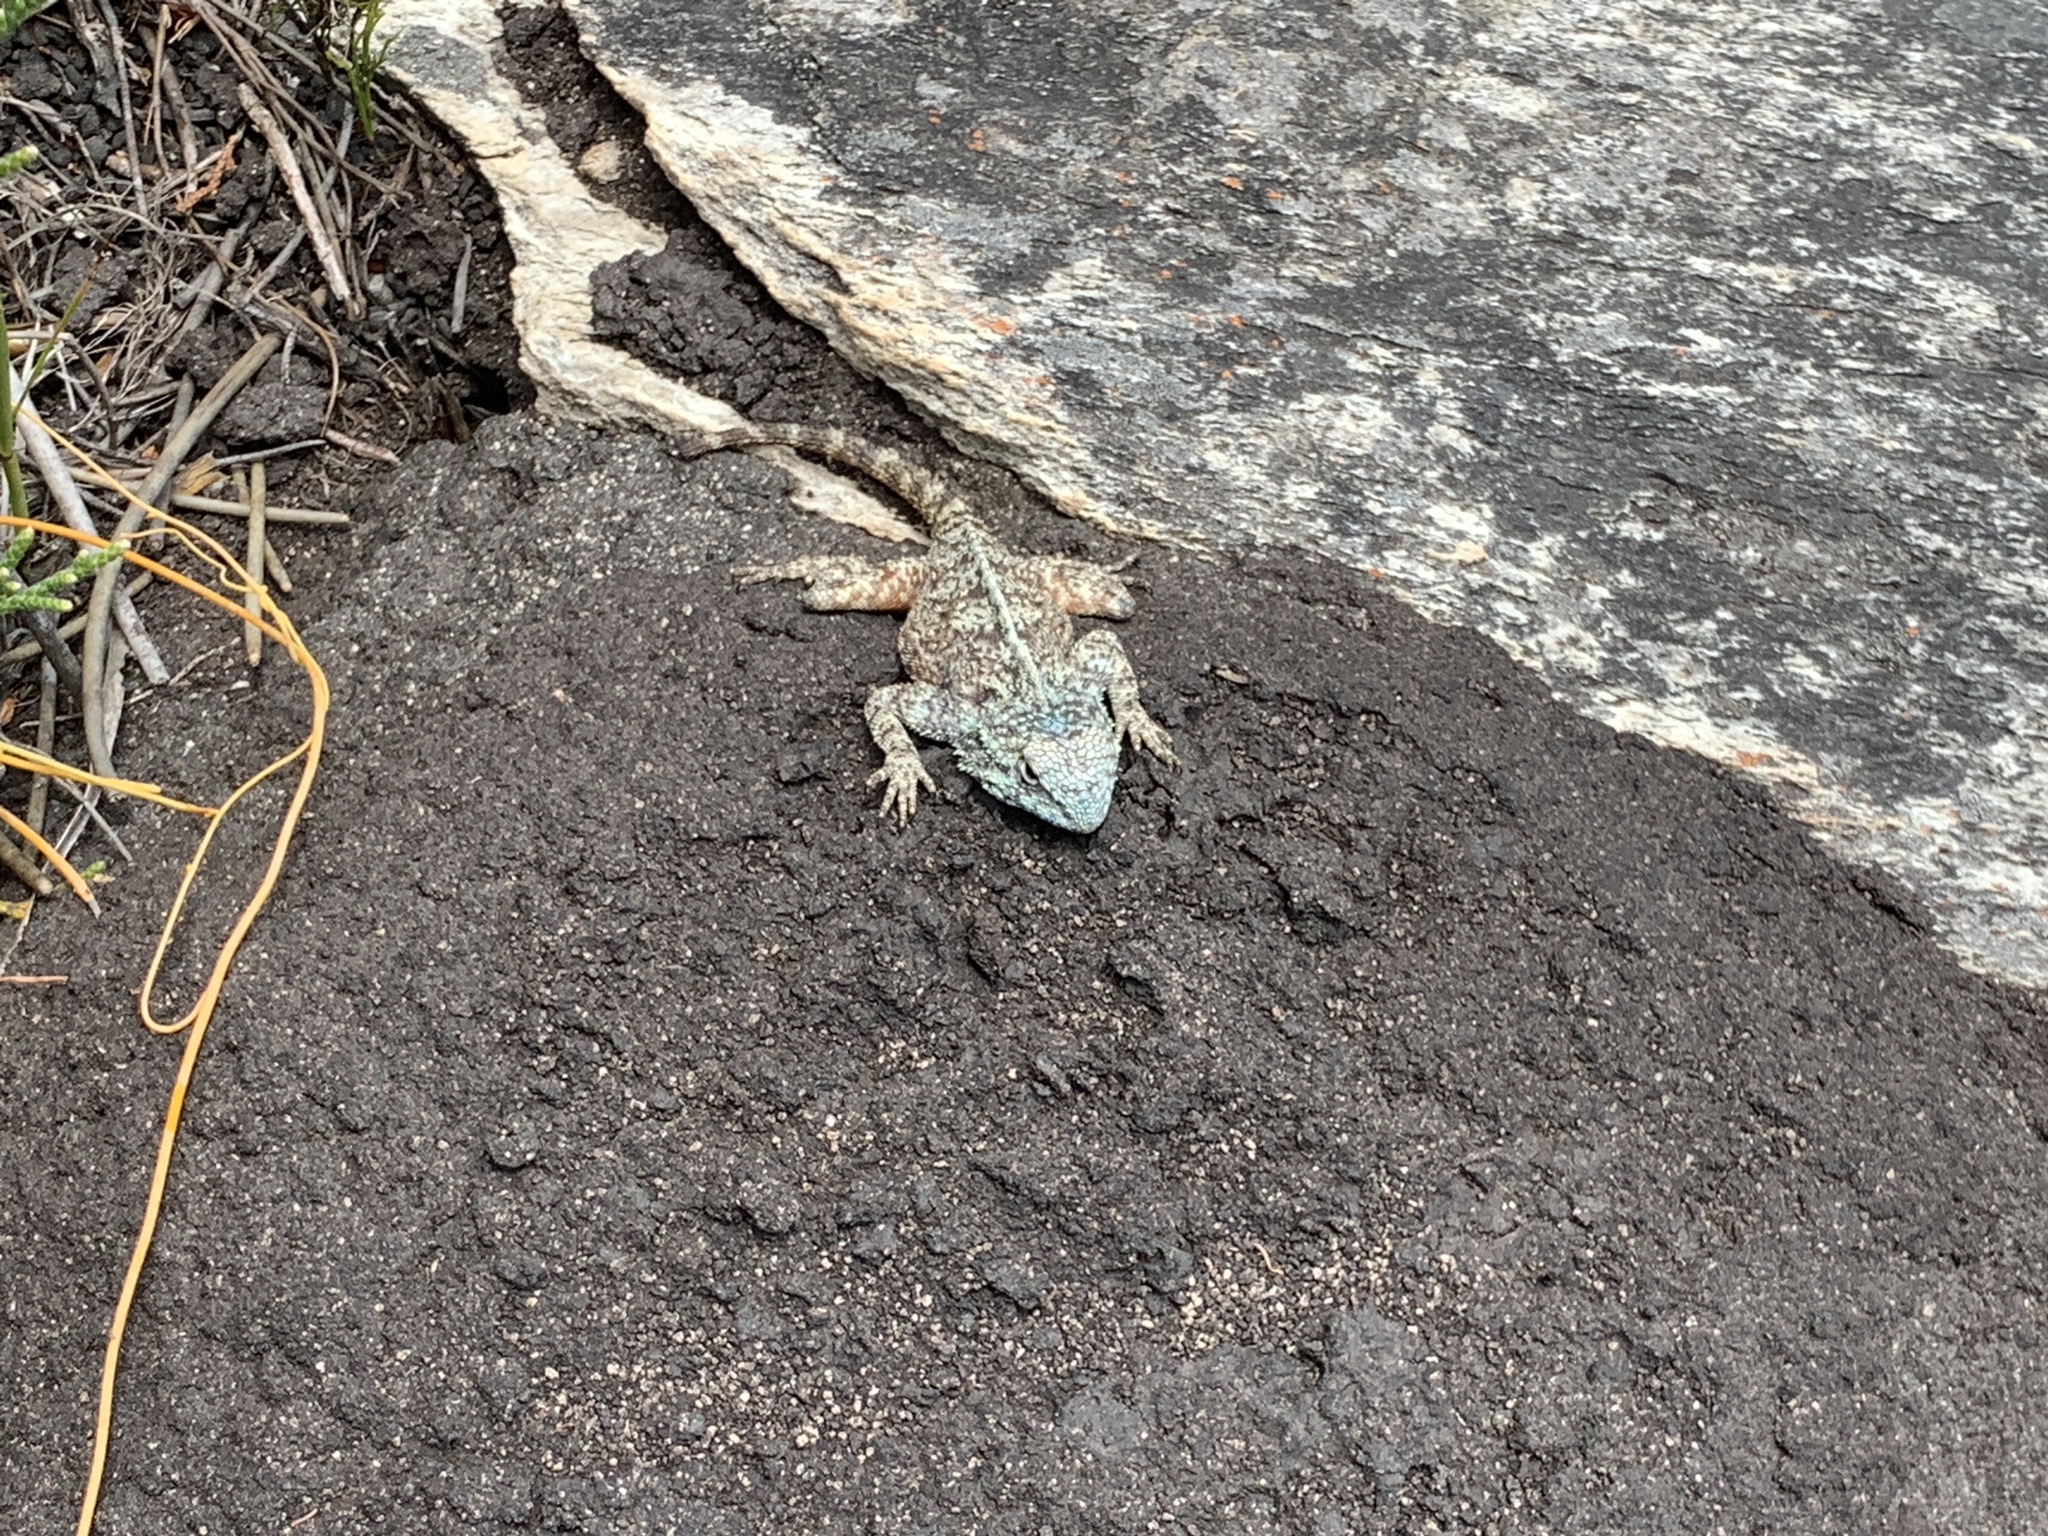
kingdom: Animalia
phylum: Chordata
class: Squamata
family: Agamidae
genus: Agama
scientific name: Agama atra
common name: Southern african rock agama
